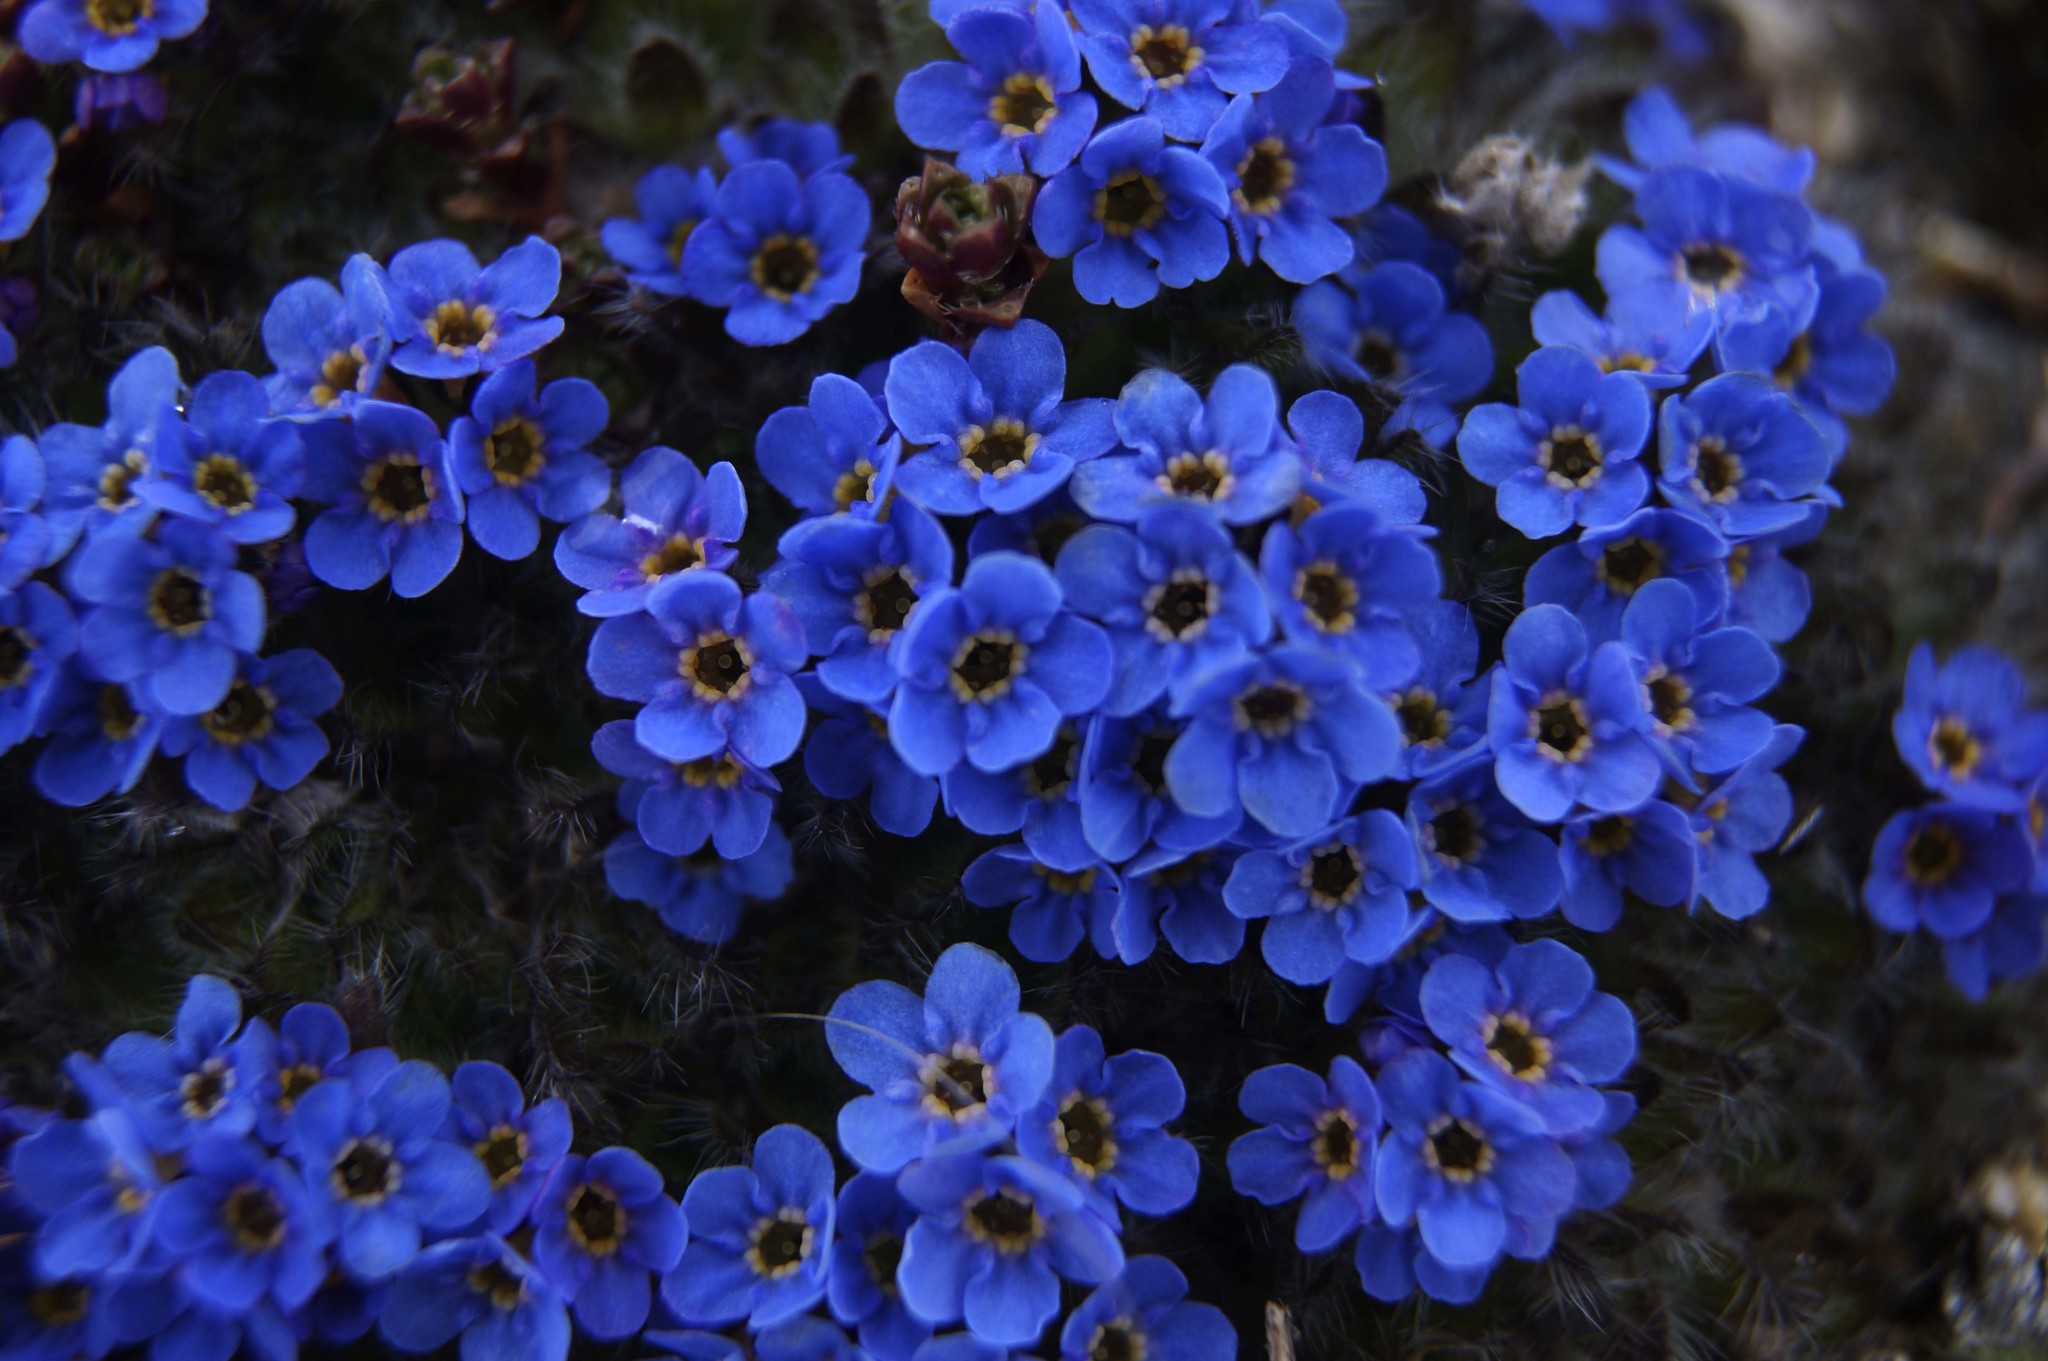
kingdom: Plantae
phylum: Tracheophyta
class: Magnoliopsida
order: Boraginales
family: Boraginaceae
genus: Eritrichium
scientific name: Eritrichium pulvinatum
